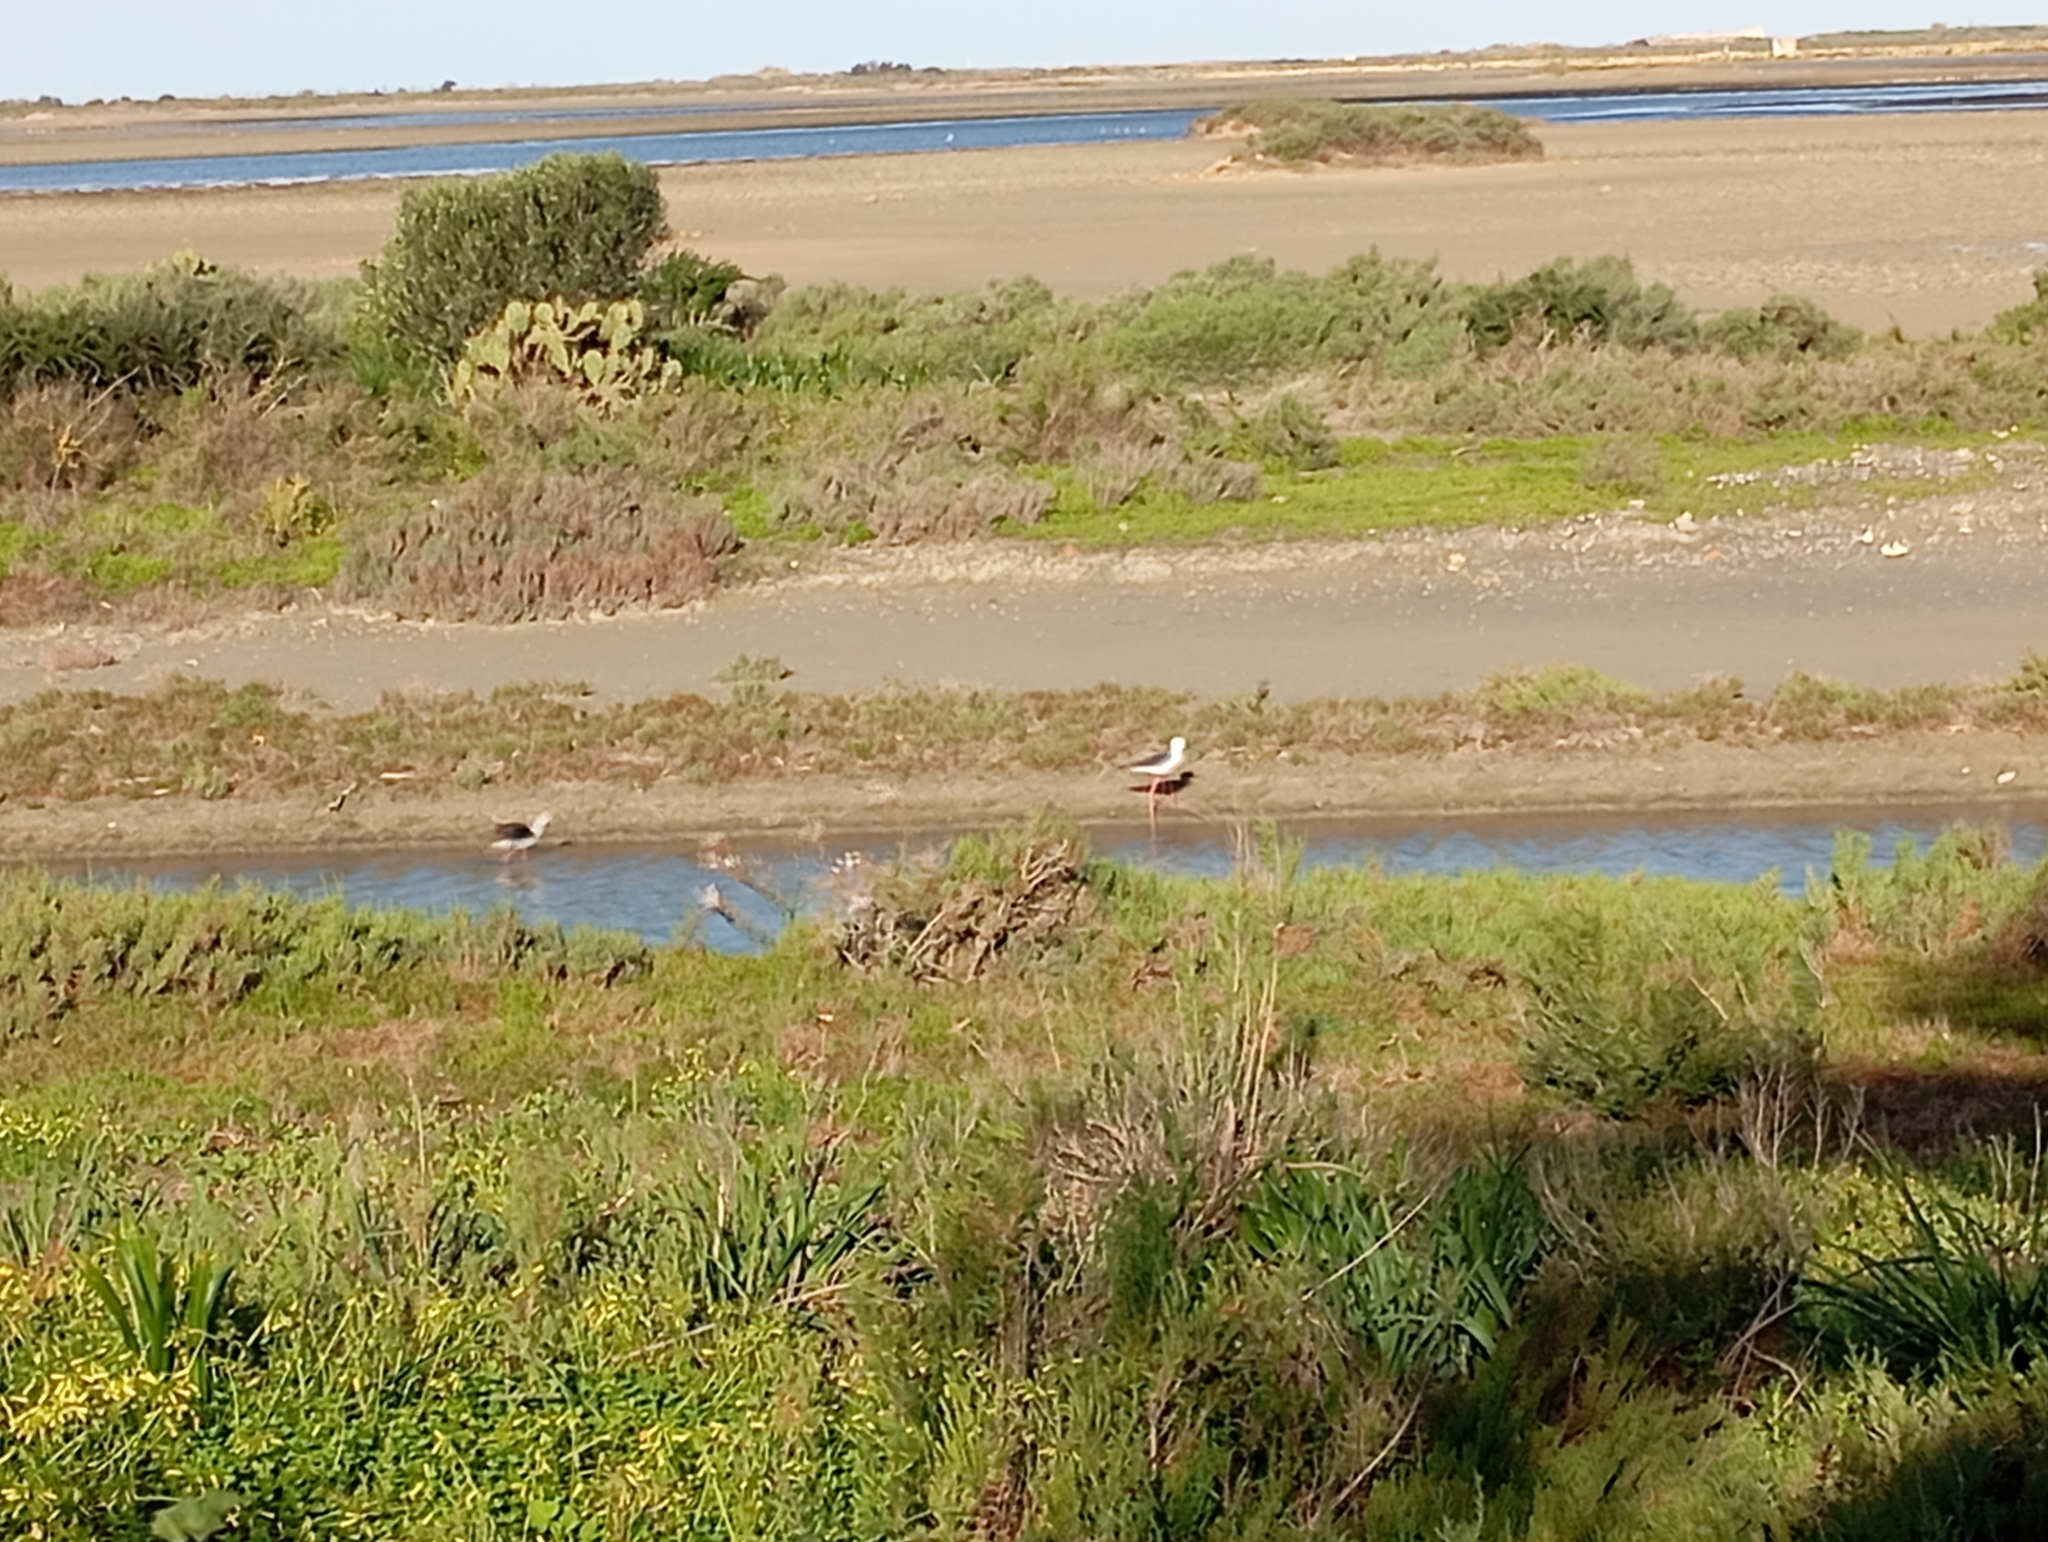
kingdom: Animalia
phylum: Chordata
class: Aves
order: Charadriiformes
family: Recurvirostridae
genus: Himantopus
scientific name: Himantopus himantopus
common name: Black-winged stilt
